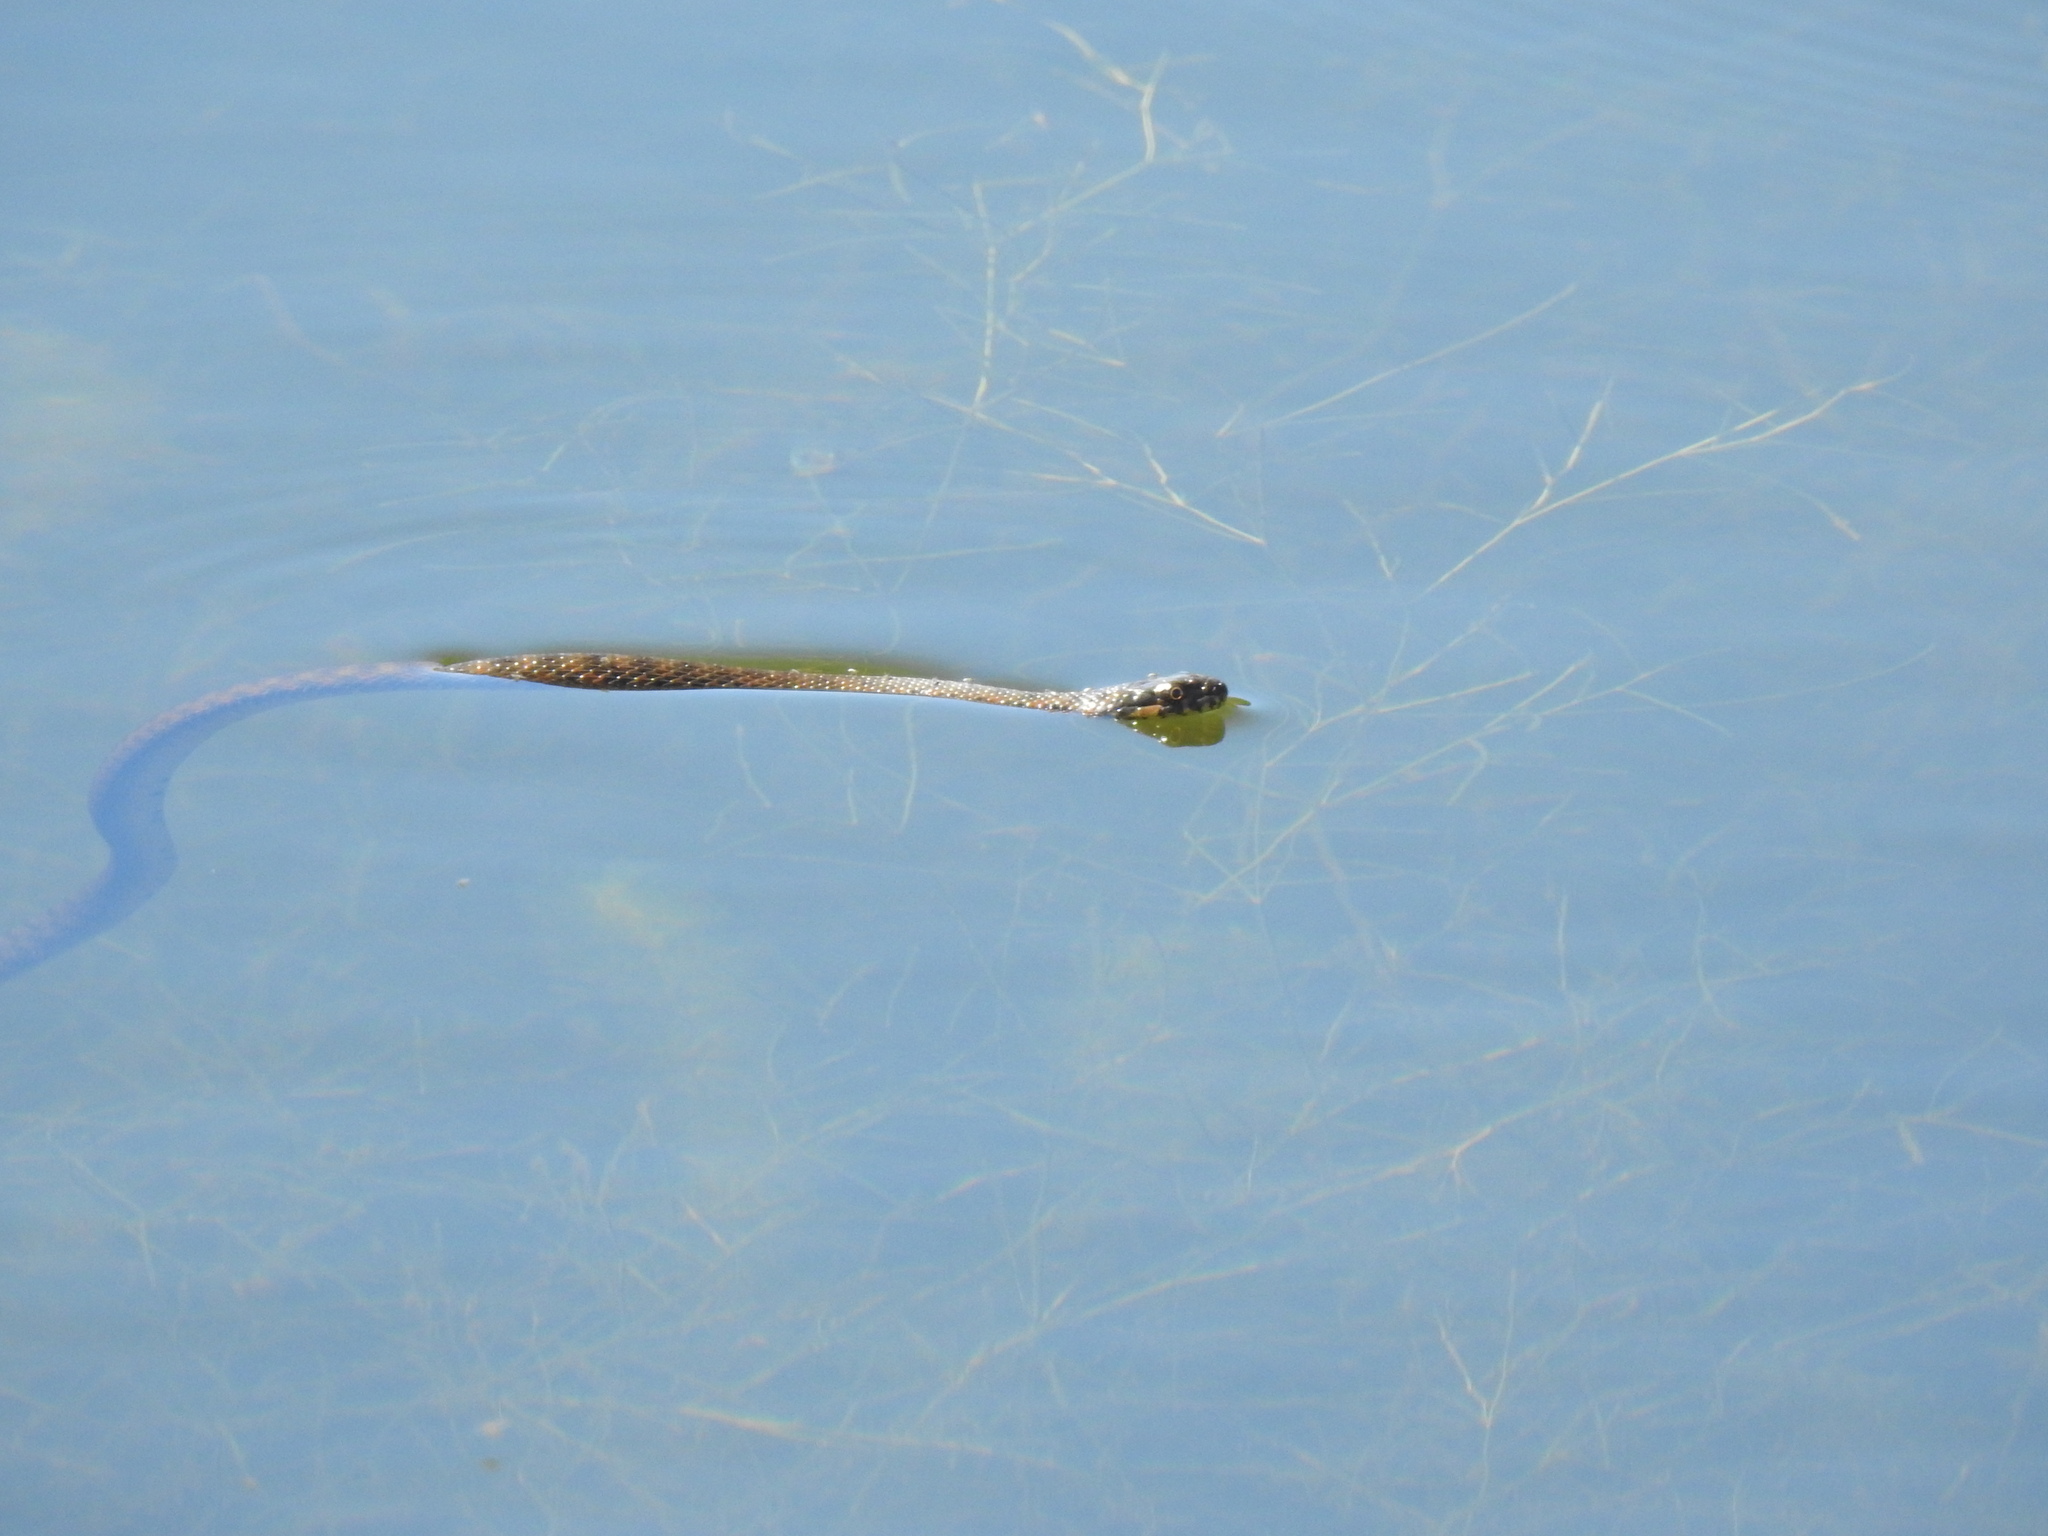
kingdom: Animalia
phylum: Chordata
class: Squamata
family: Colubridae
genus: Natrix
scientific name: Natrix maura
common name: Viperine water snake
